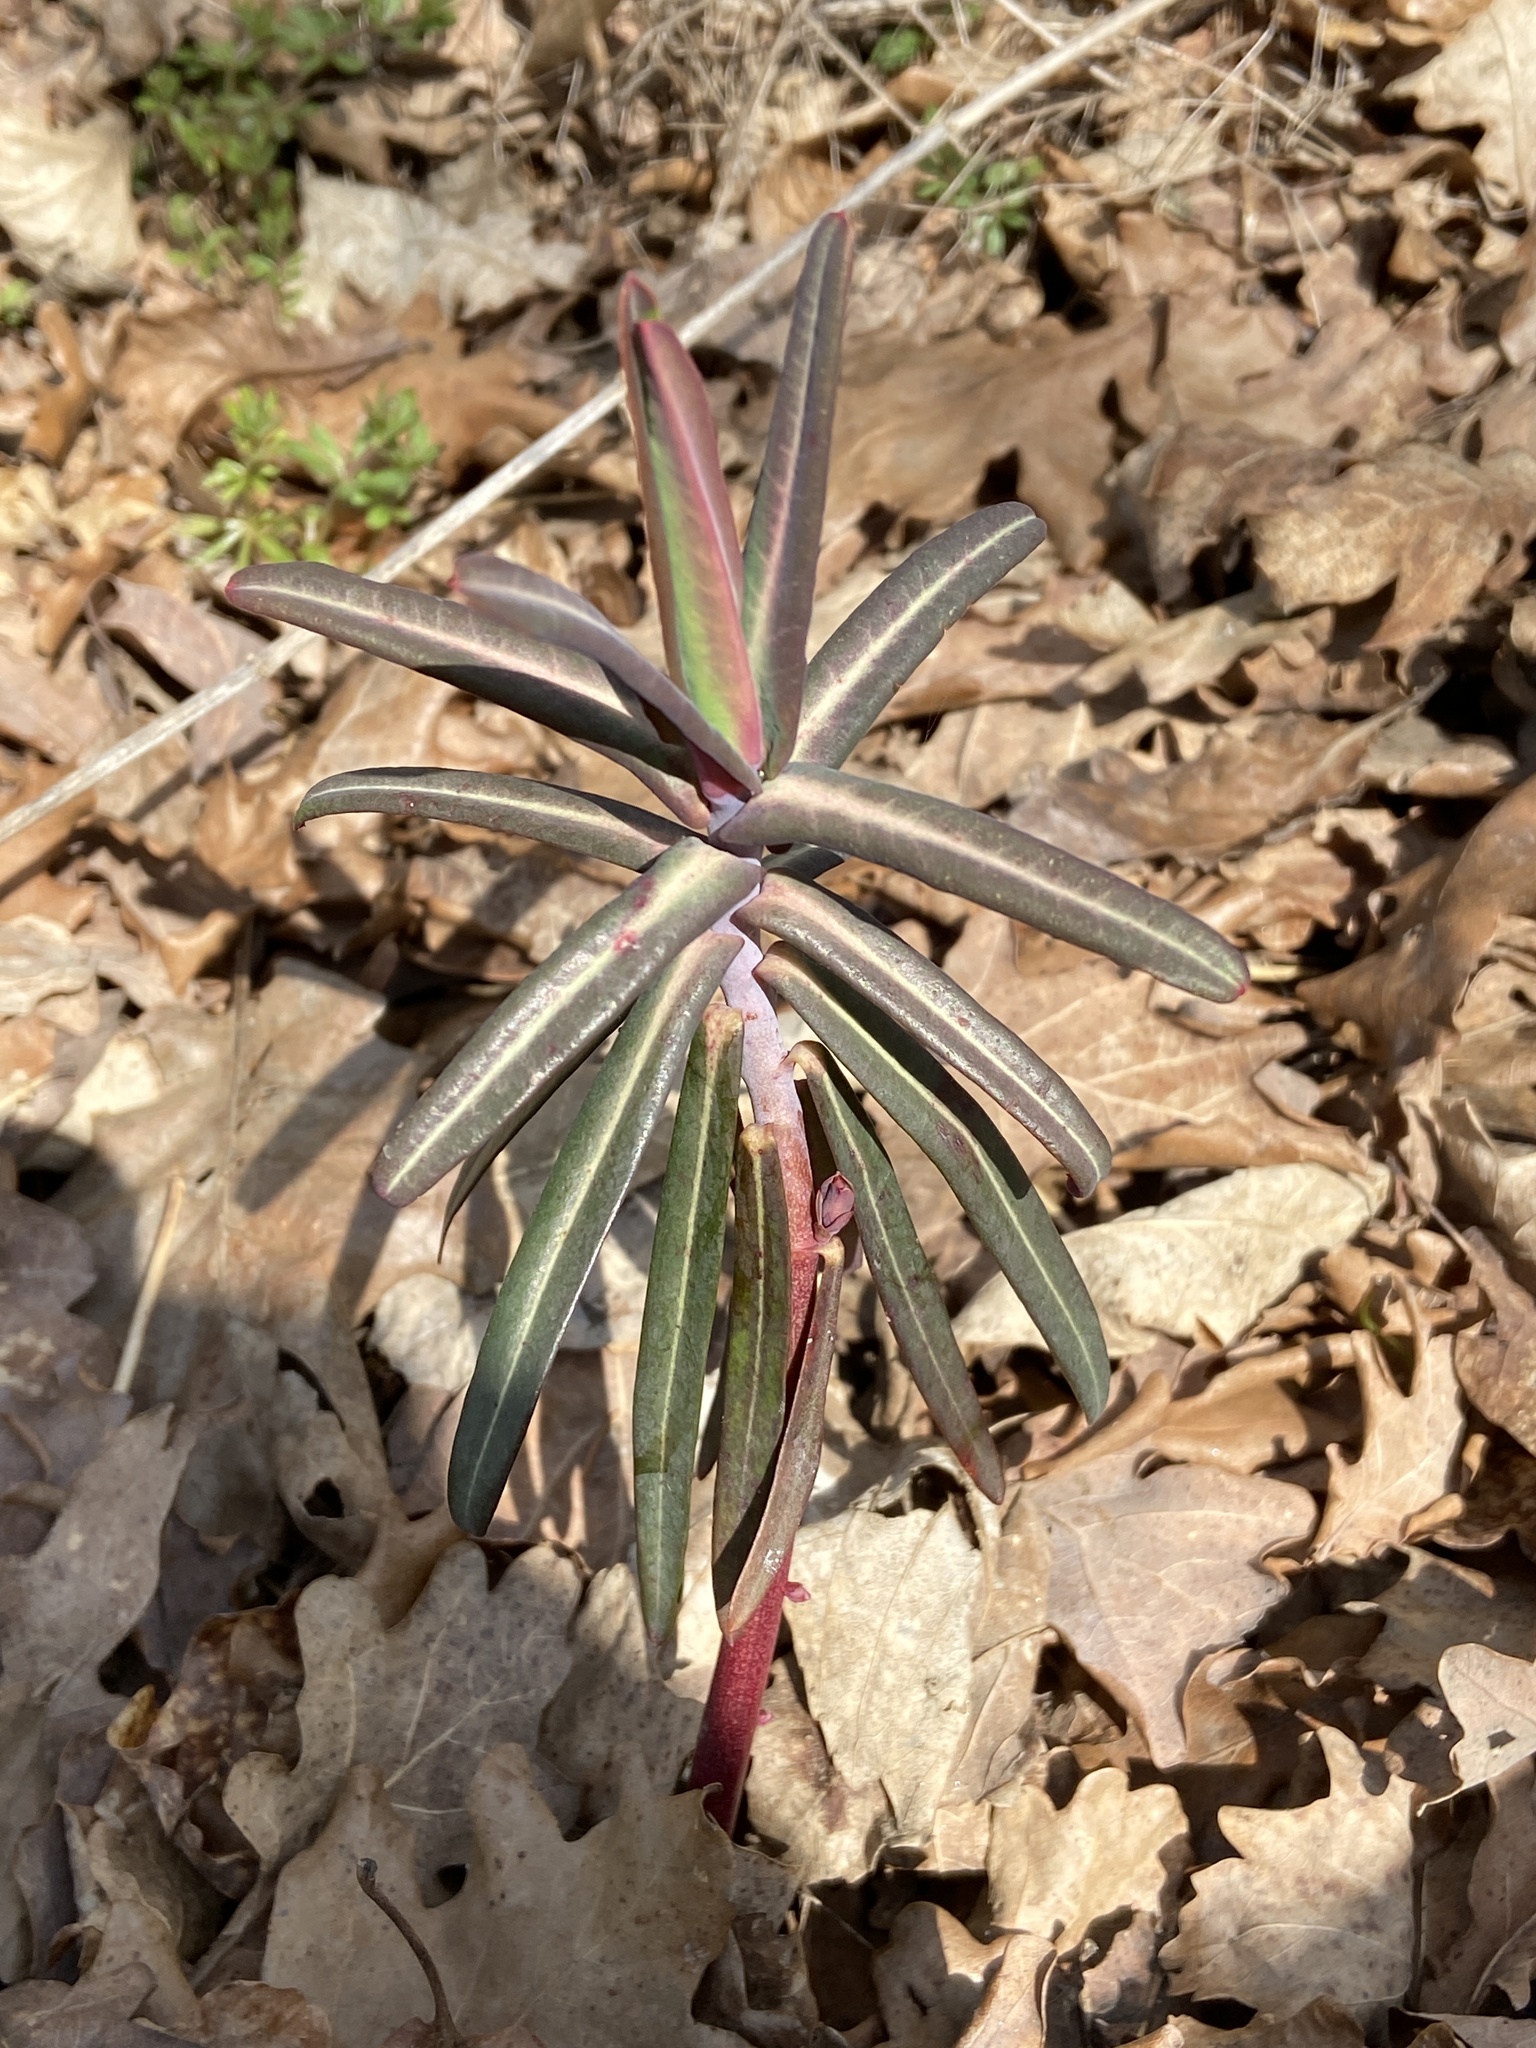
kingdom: Plantae
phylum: Tracheophyta
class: Magnoliopsida
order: Malpighiales
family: Euphorbiaceae
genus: Euphorbia
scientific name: Euphorbia lathyris
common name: Caper spurge
